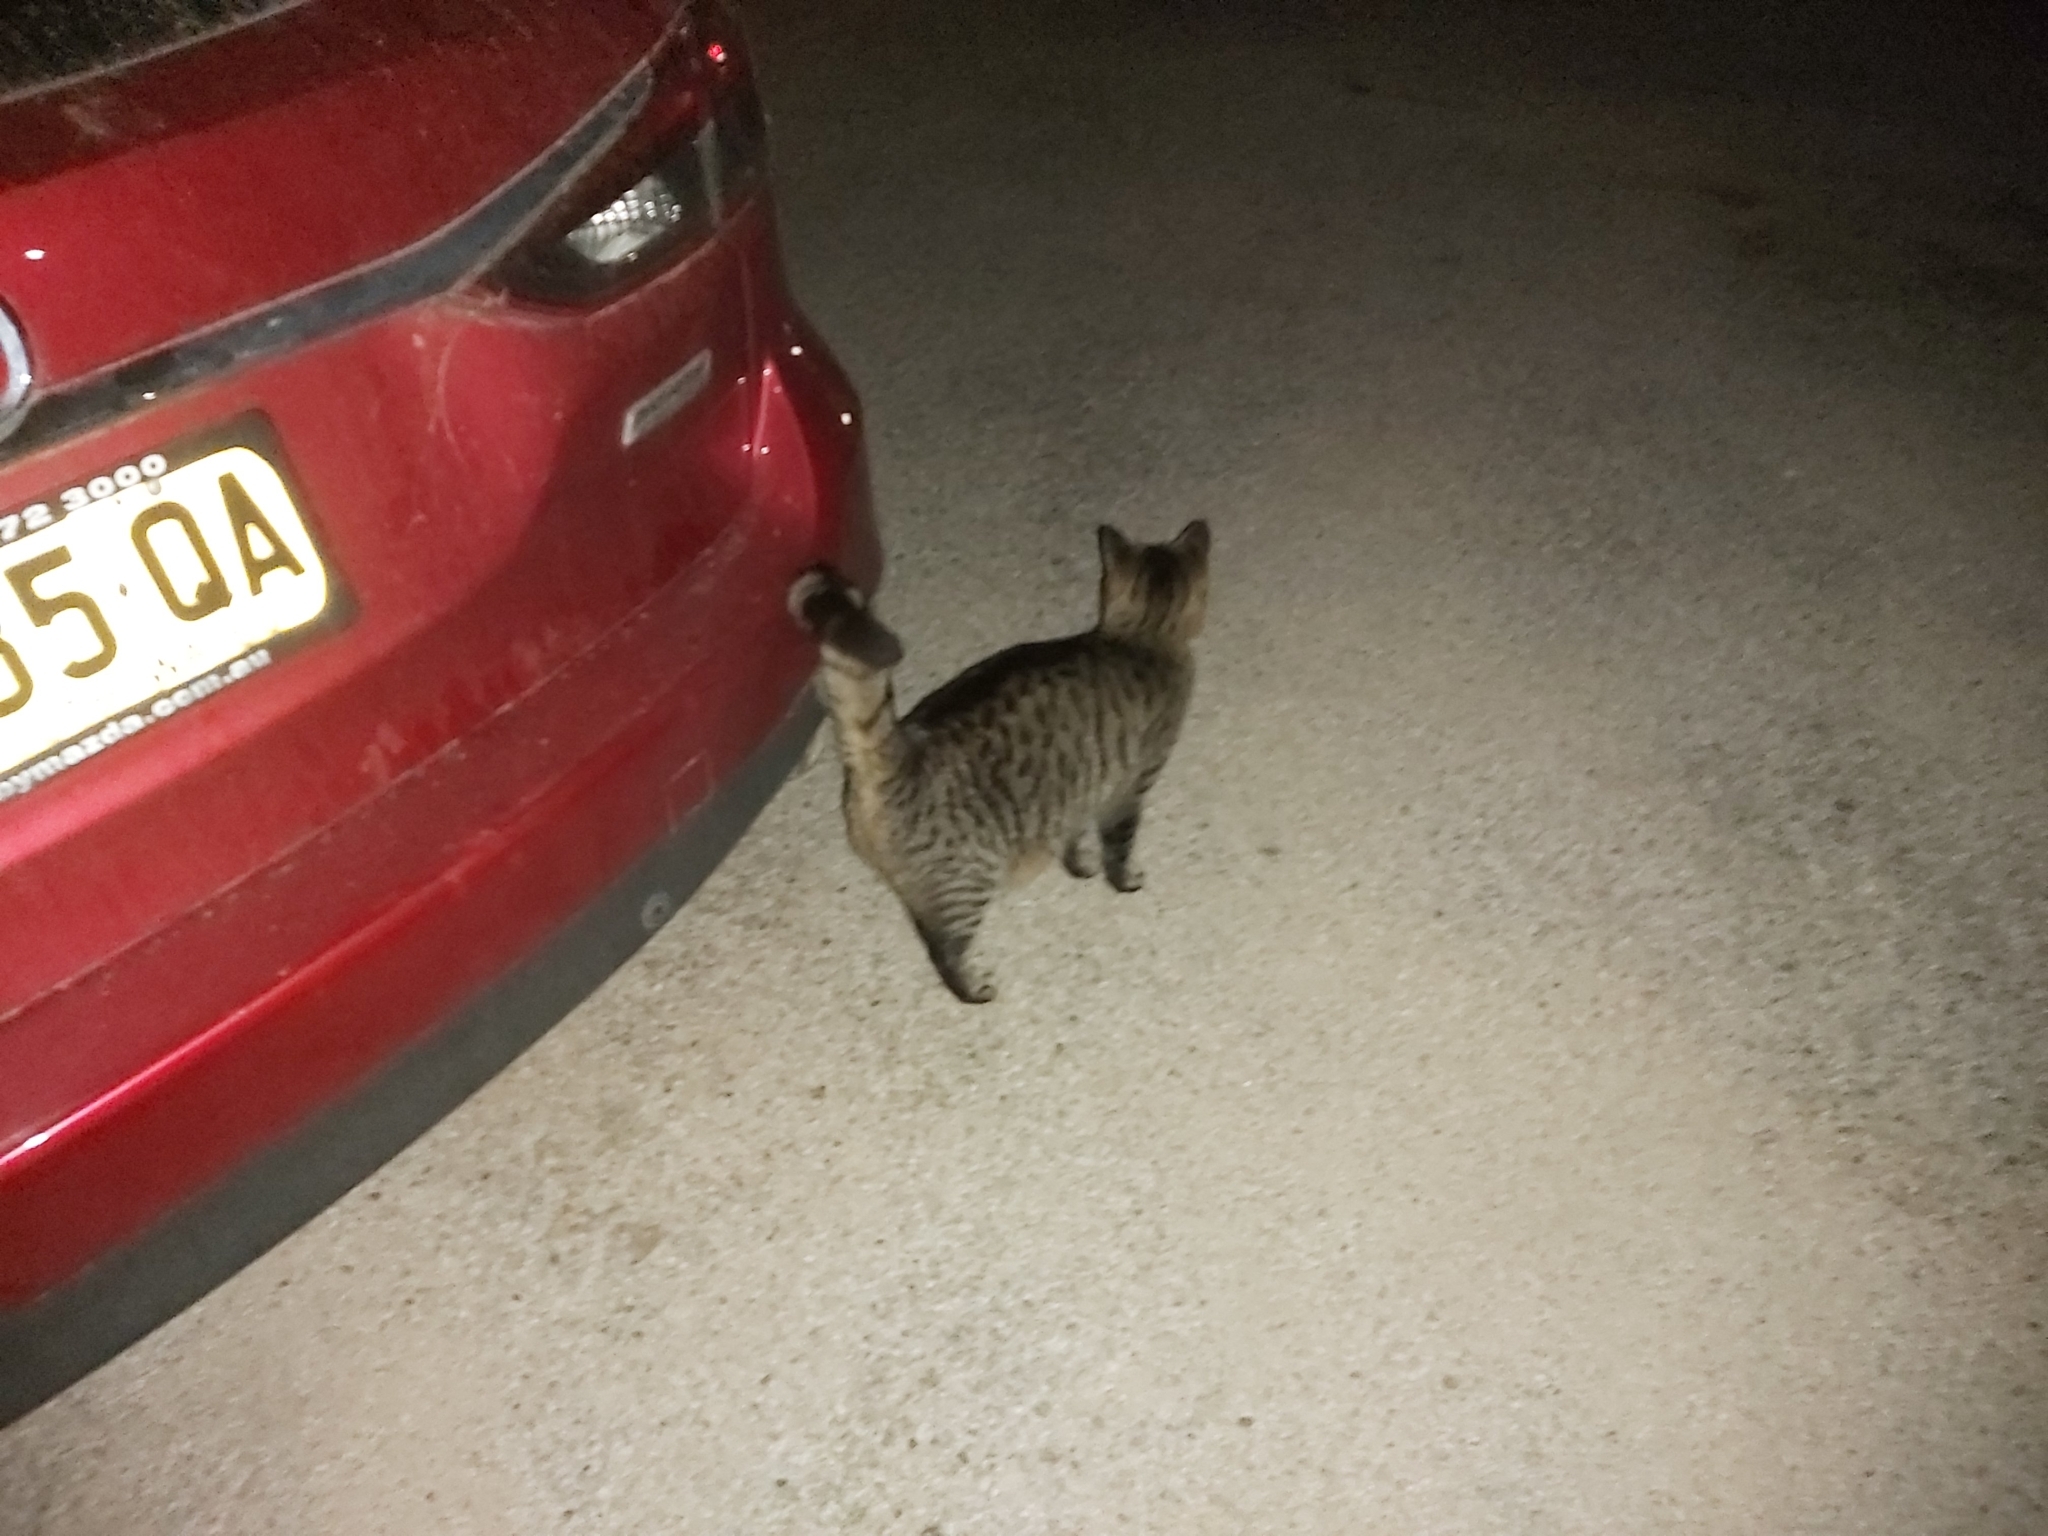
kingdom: Animalia
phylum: Chordata
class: Mammalia
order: Carnivora
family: Felidae
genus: Felis
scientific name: Felis catus
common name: Domestic cat
